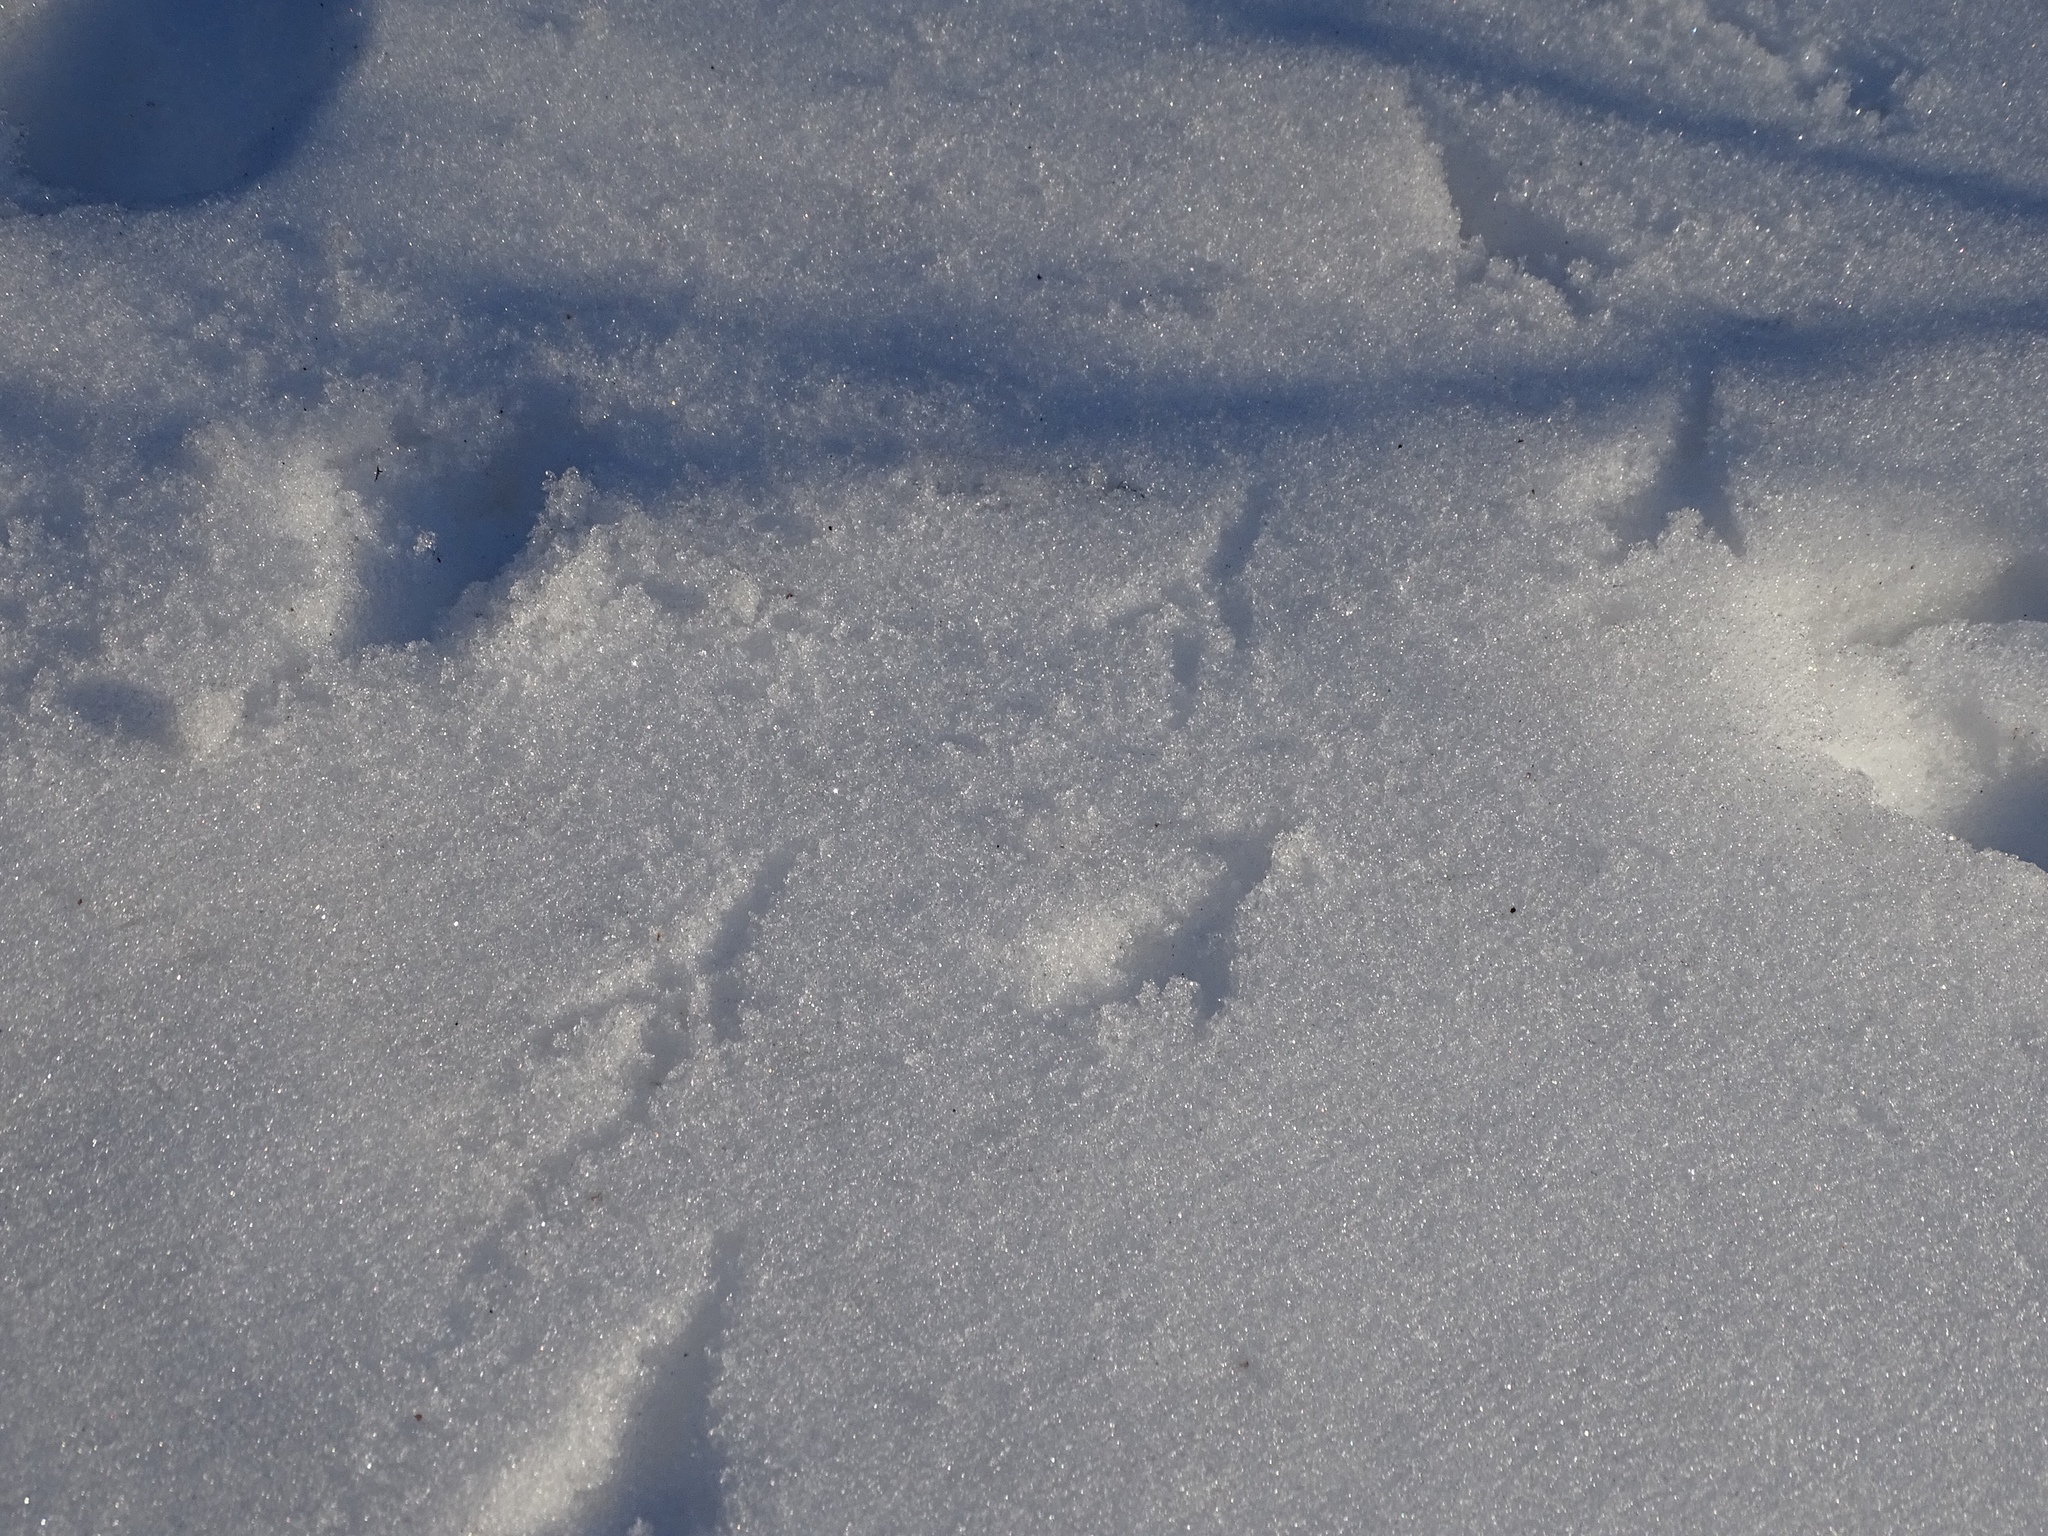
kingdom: Animalia
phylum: Chordata
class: Aves
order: Galliformes
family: Phasianidae
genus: Meleagris
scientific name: Meleagris gallopavo
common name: Wild turkey
